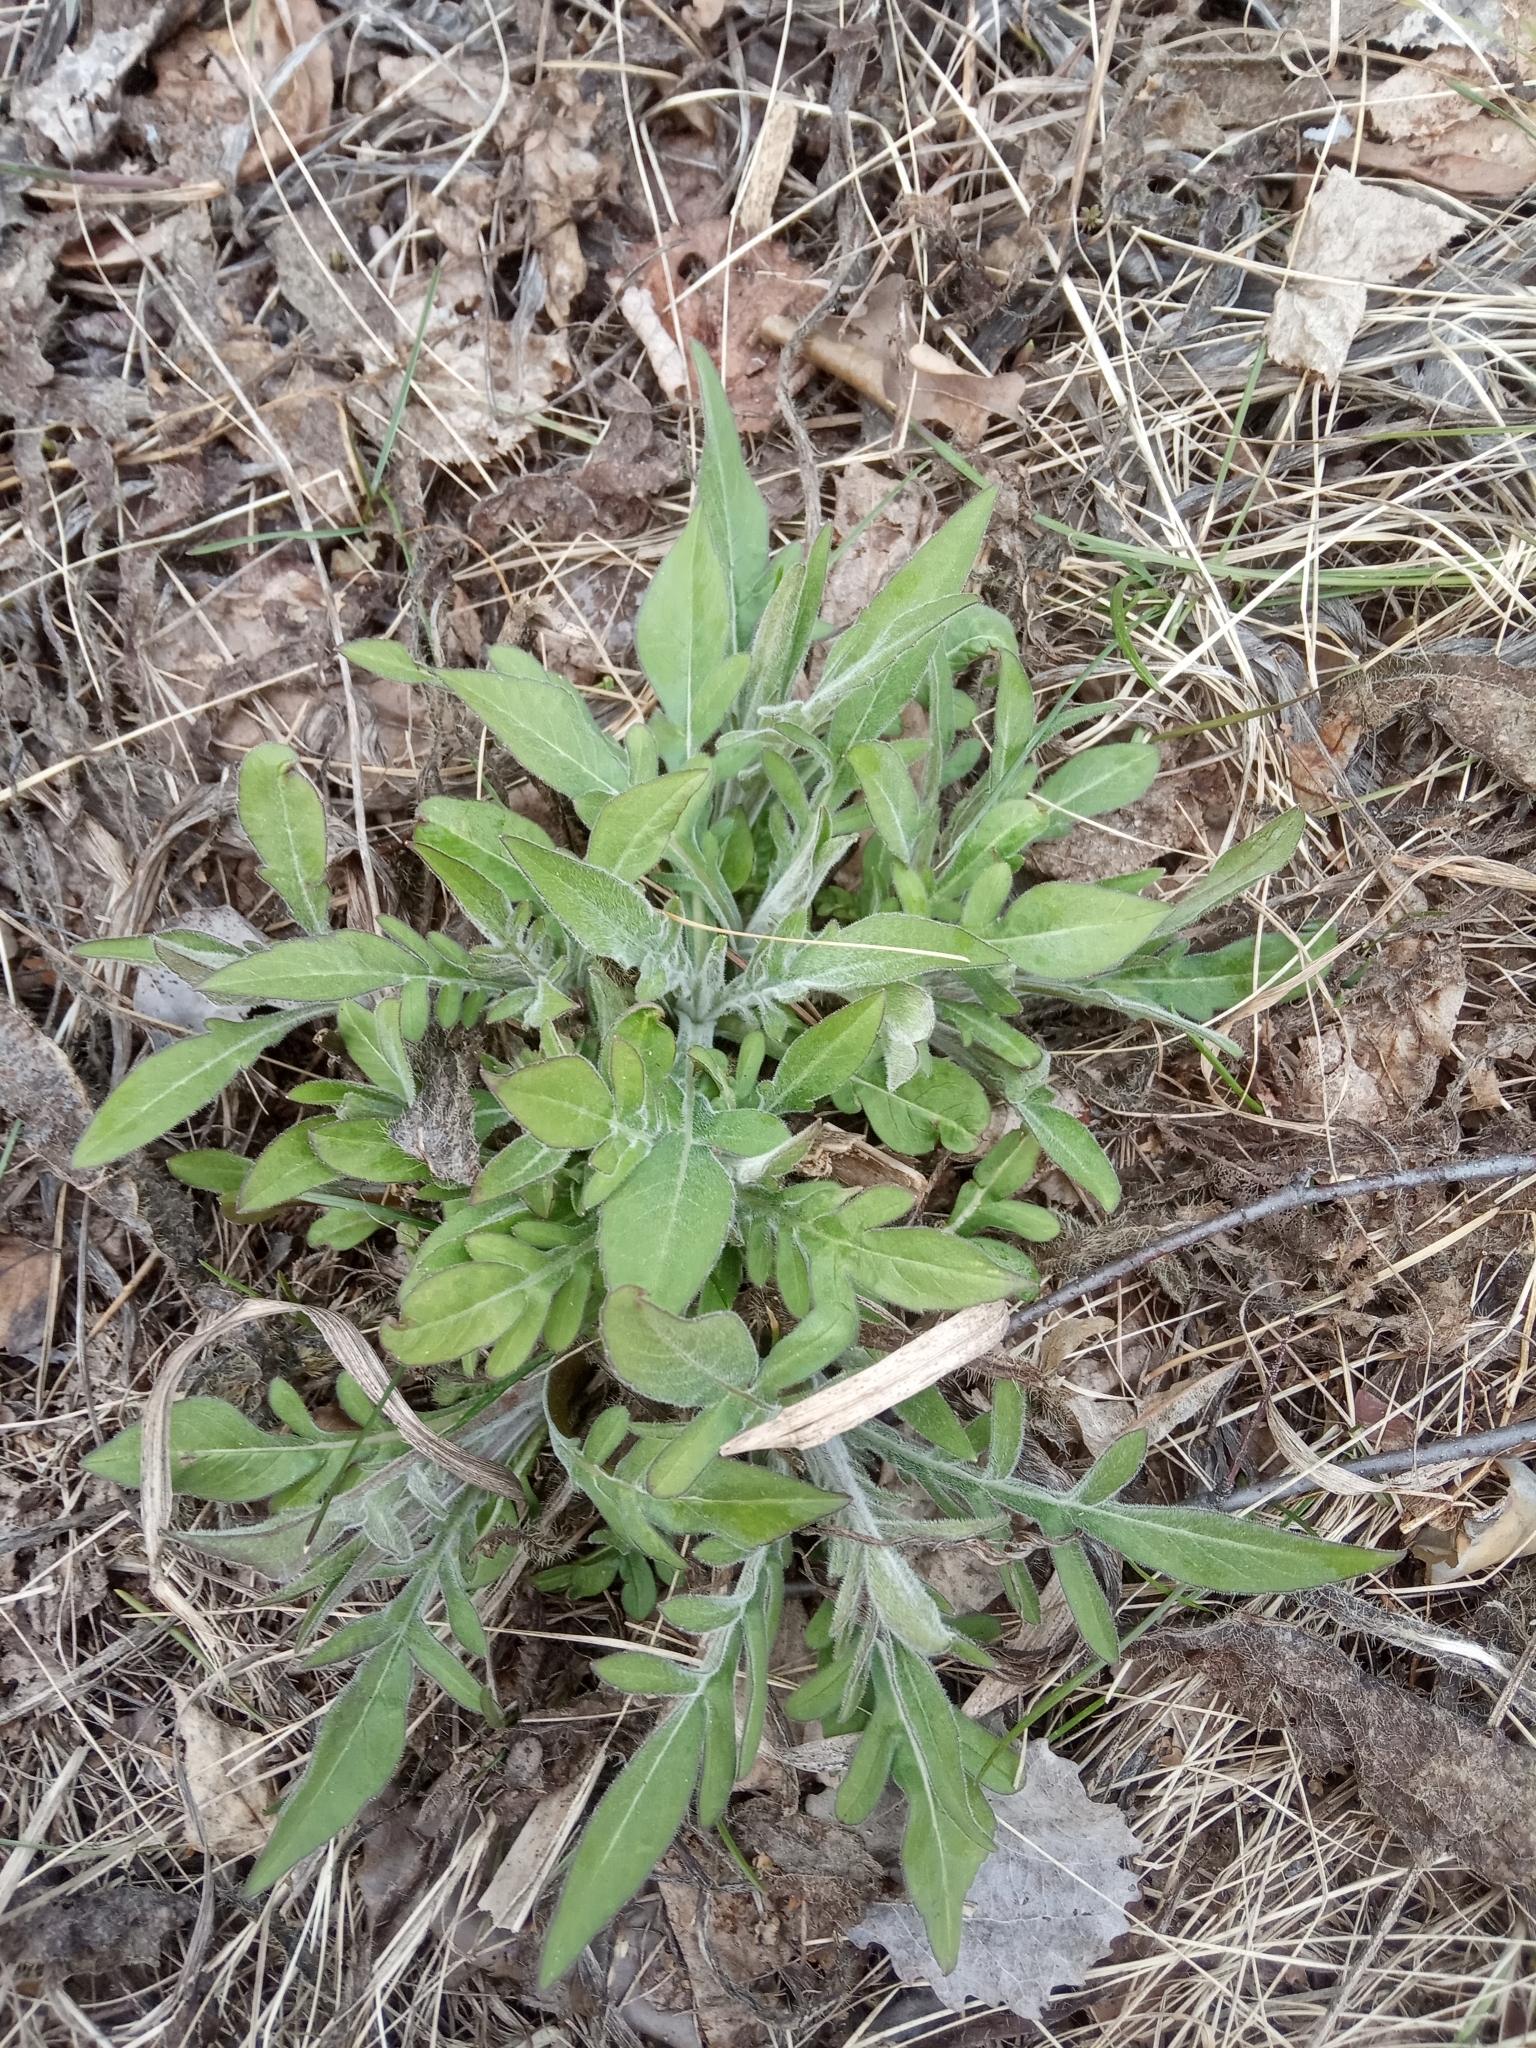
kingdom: Plantae
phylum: Tracheophyta
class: Magnoliopsida
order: Dipsacales
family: Caprifoliaceae
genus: Knautia
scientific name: Knautia arvensis
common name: Field scabiosa
